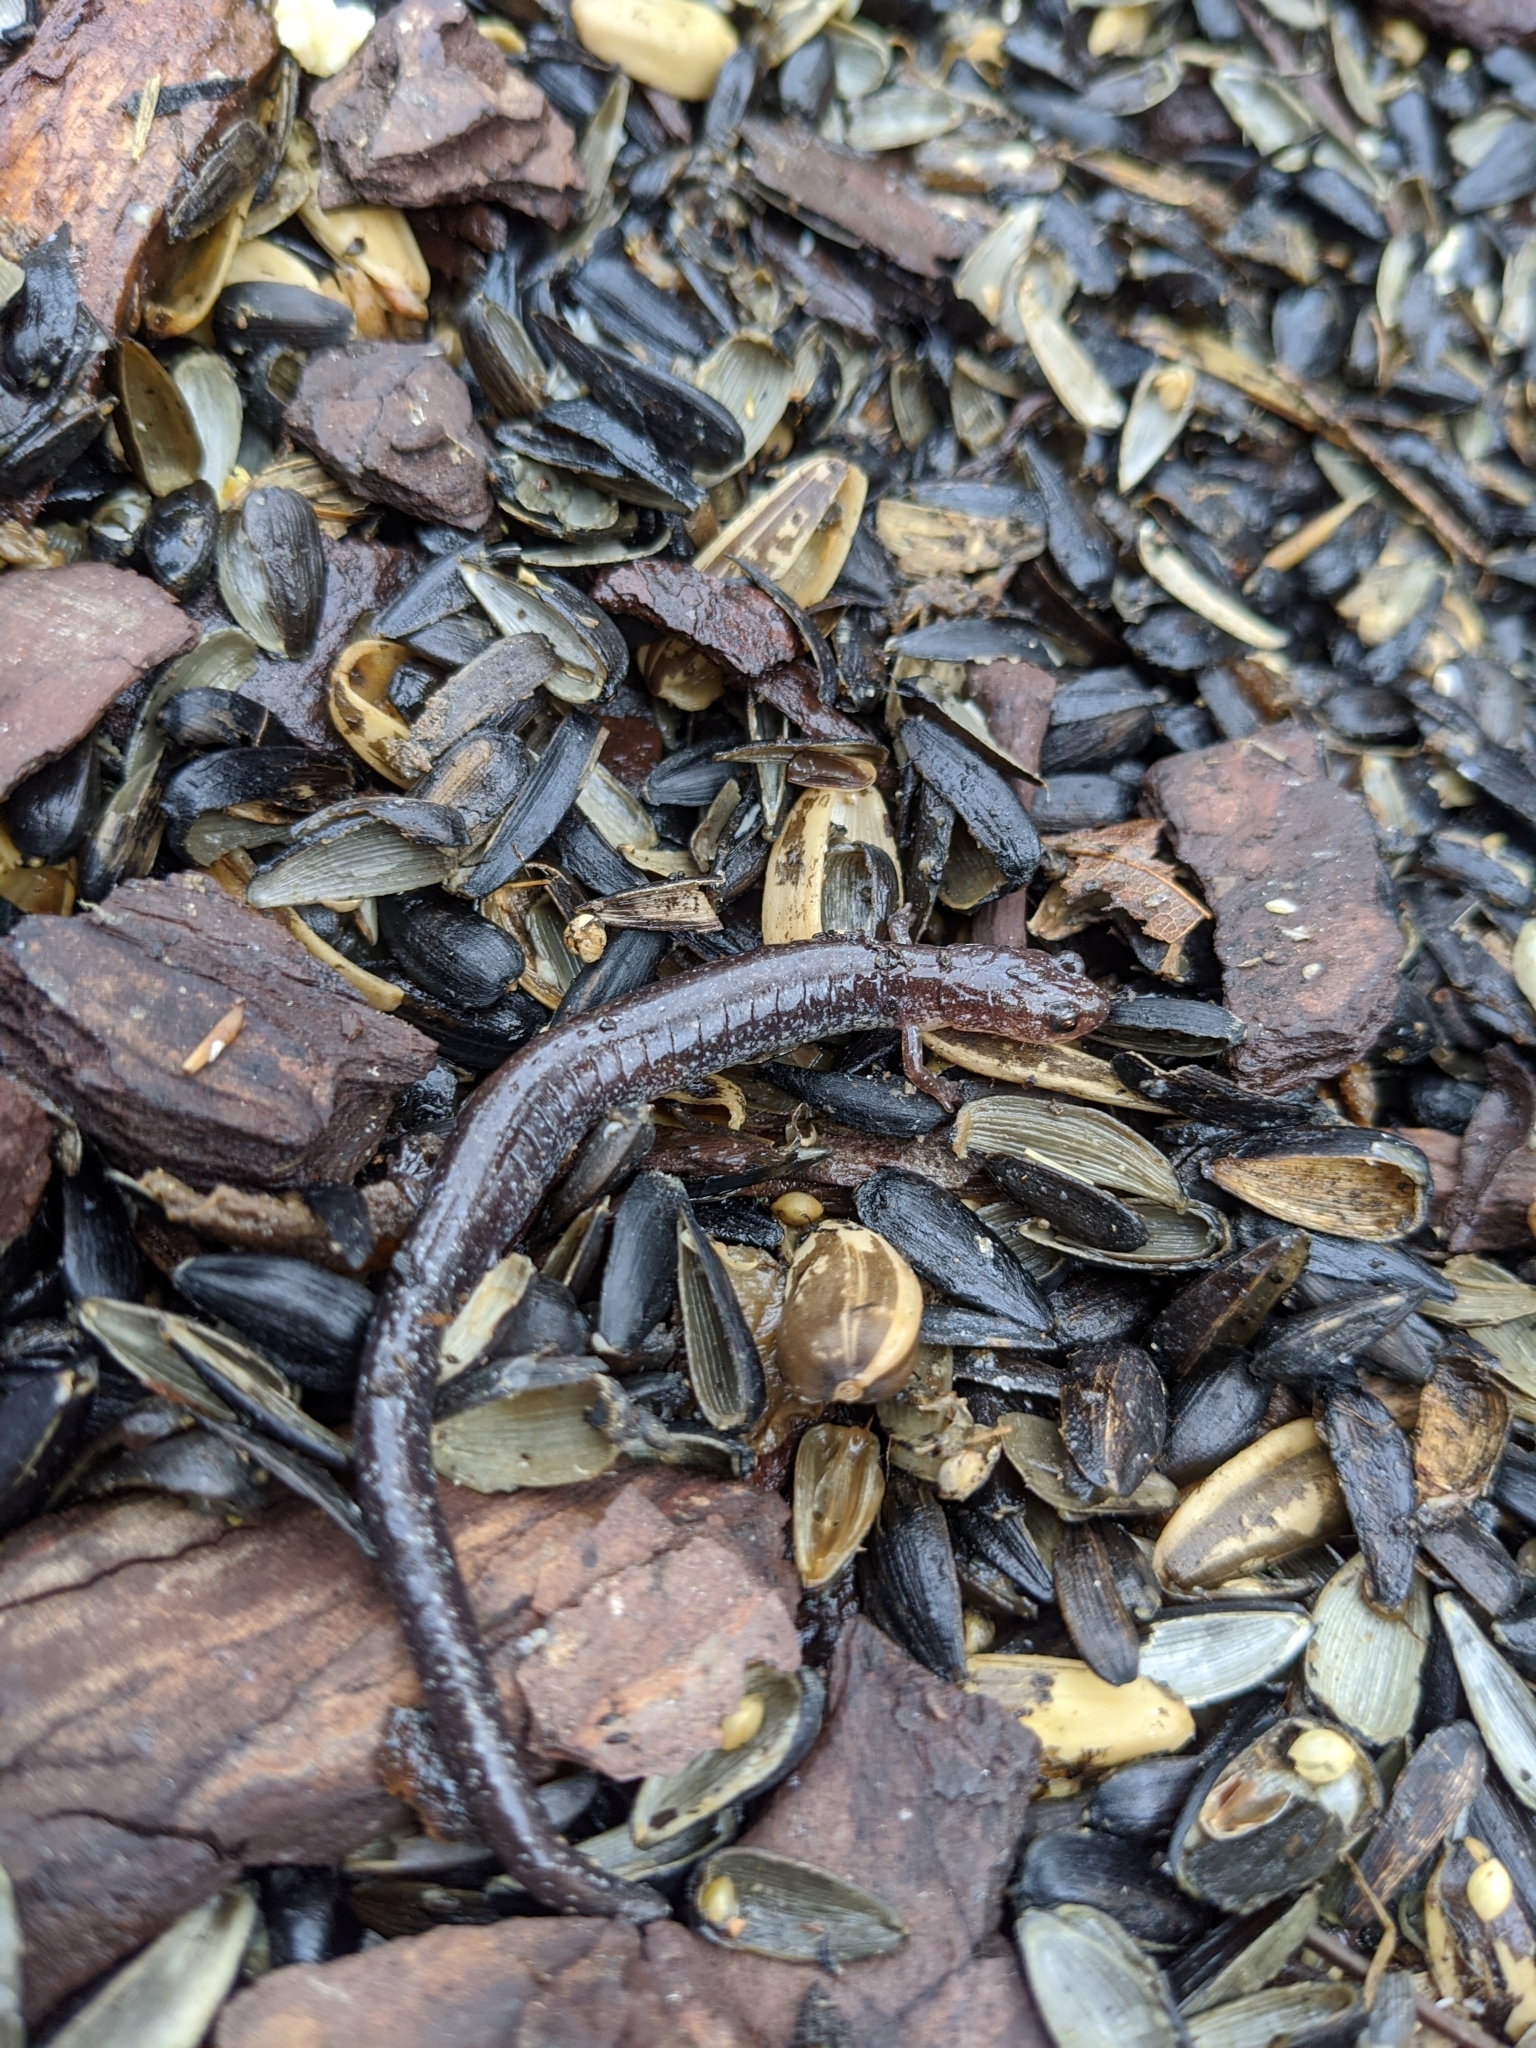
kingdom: Animalia
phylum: Chordata
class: Amphibia
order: Caudata
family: Plethodontidae
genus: Plethodon
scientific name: Plethodon cinereus
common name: Redback salamander
